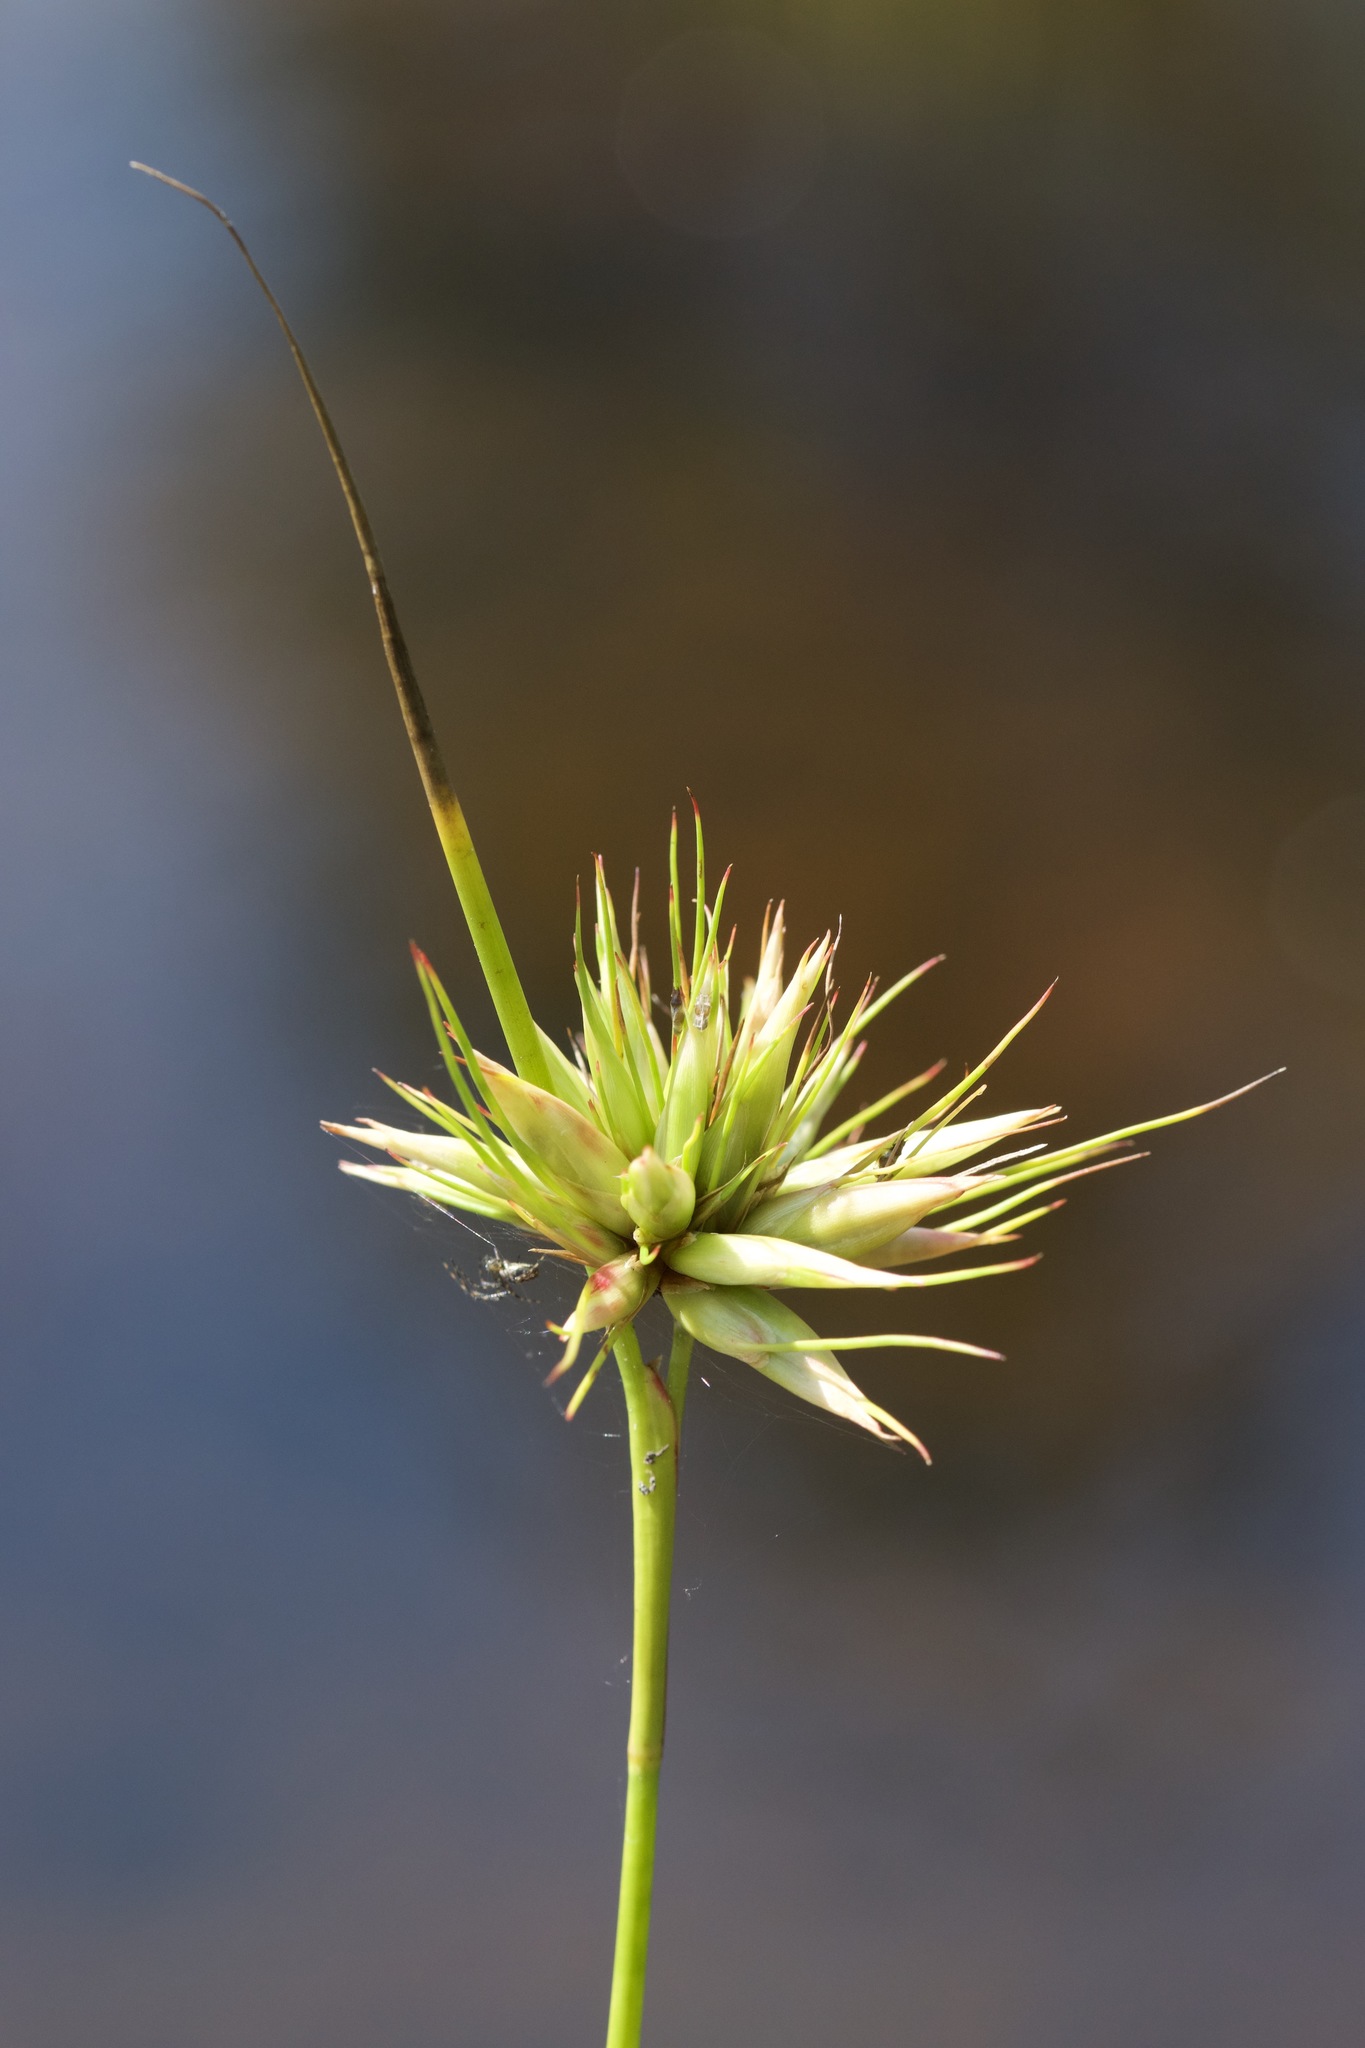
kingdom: Plantae
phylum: Tracheophyta
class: Liliopsida
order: Poales
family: Cyperaceae
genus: Rhynchospora
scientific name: Rhynchospora alba
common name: White beak-sedge
